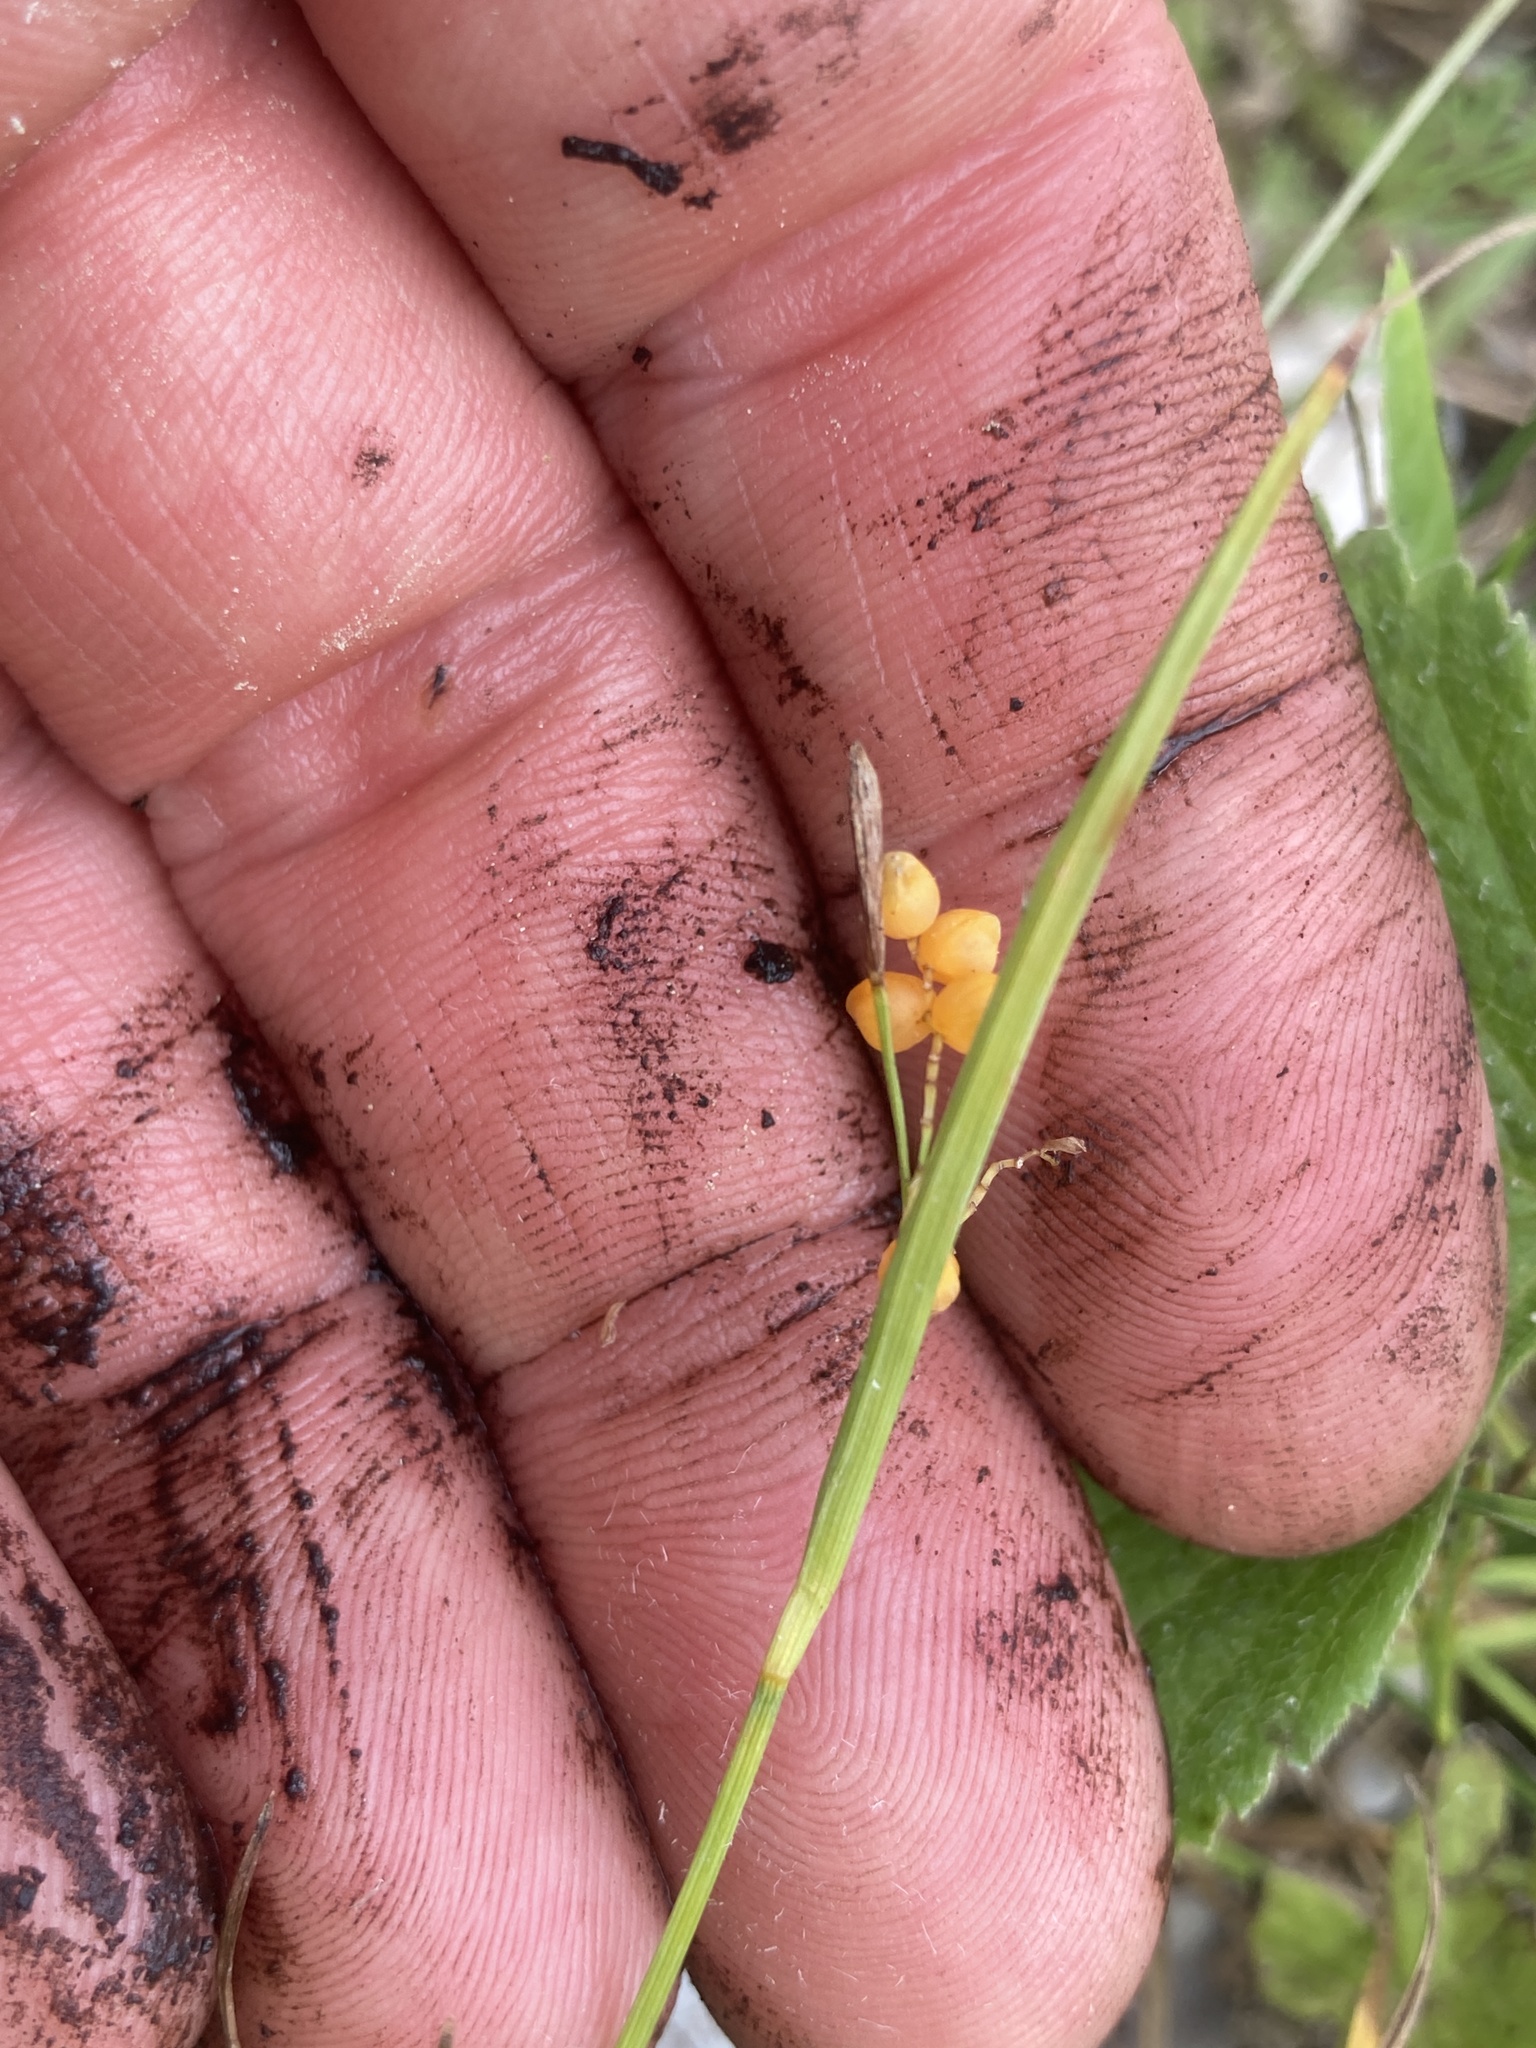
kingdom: Plantae
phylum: Tracheophyta
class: Liliopsida
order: Poales
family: Cyperaceae
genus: Carex
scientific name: Carex aurea
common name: Golden sedge
